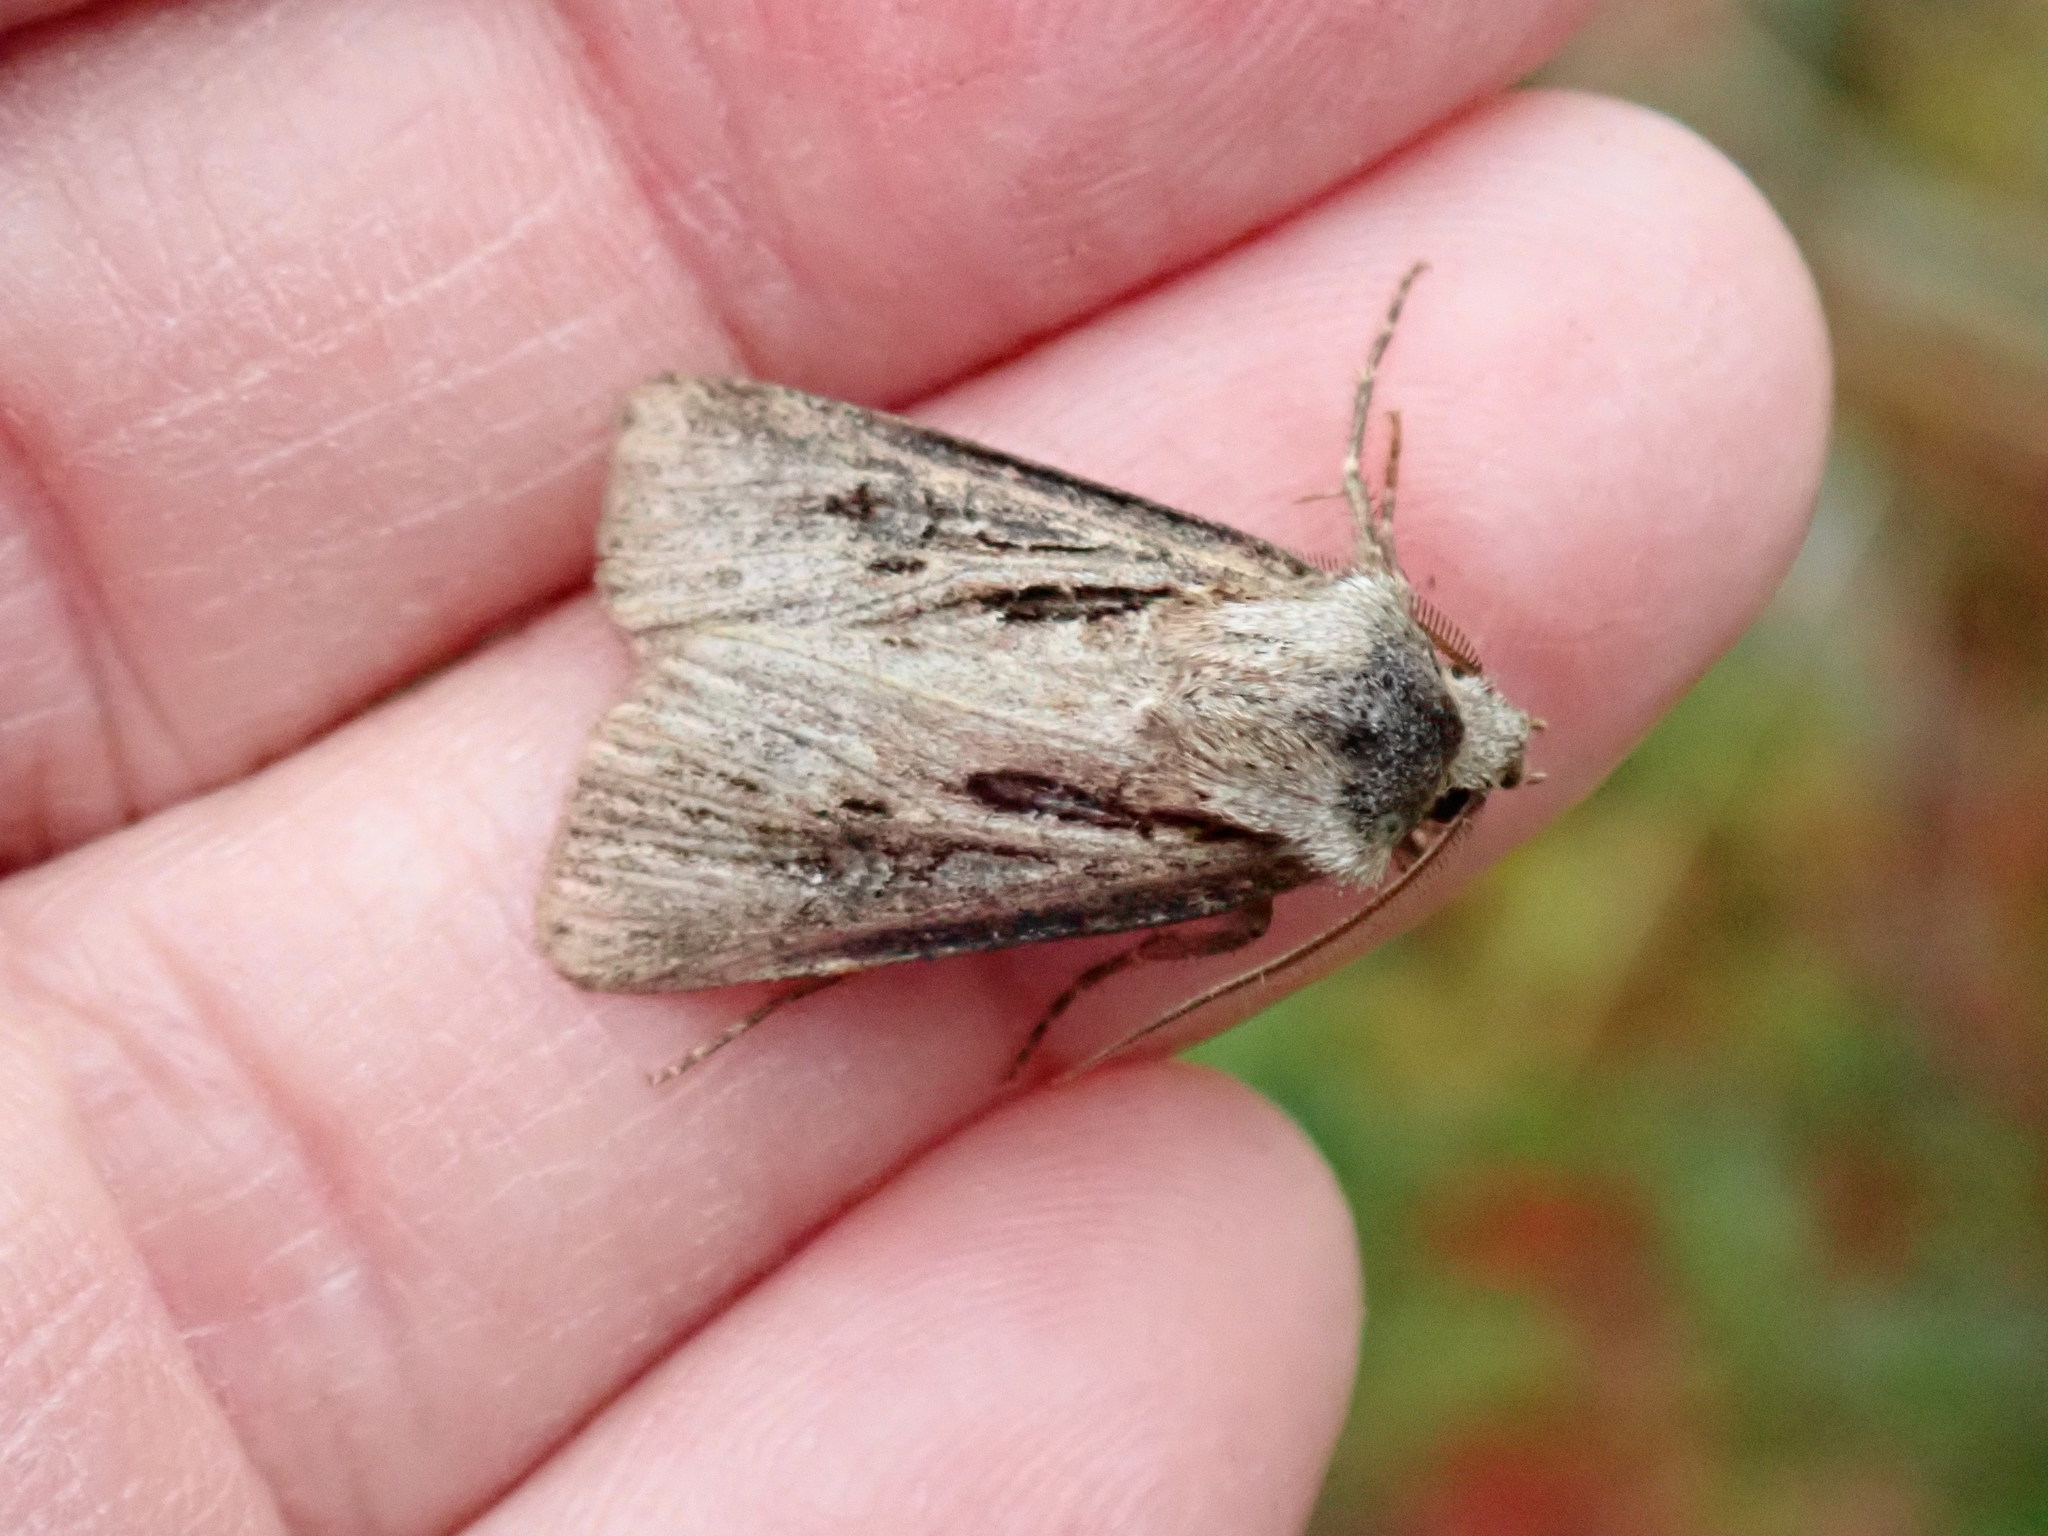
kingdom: Animalia
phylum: Arthropoda
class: Insecta
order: Lepidoptera
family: Noctuidae
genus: Agrotis
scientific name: Agrotis venerabilis
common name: Venerable dart
